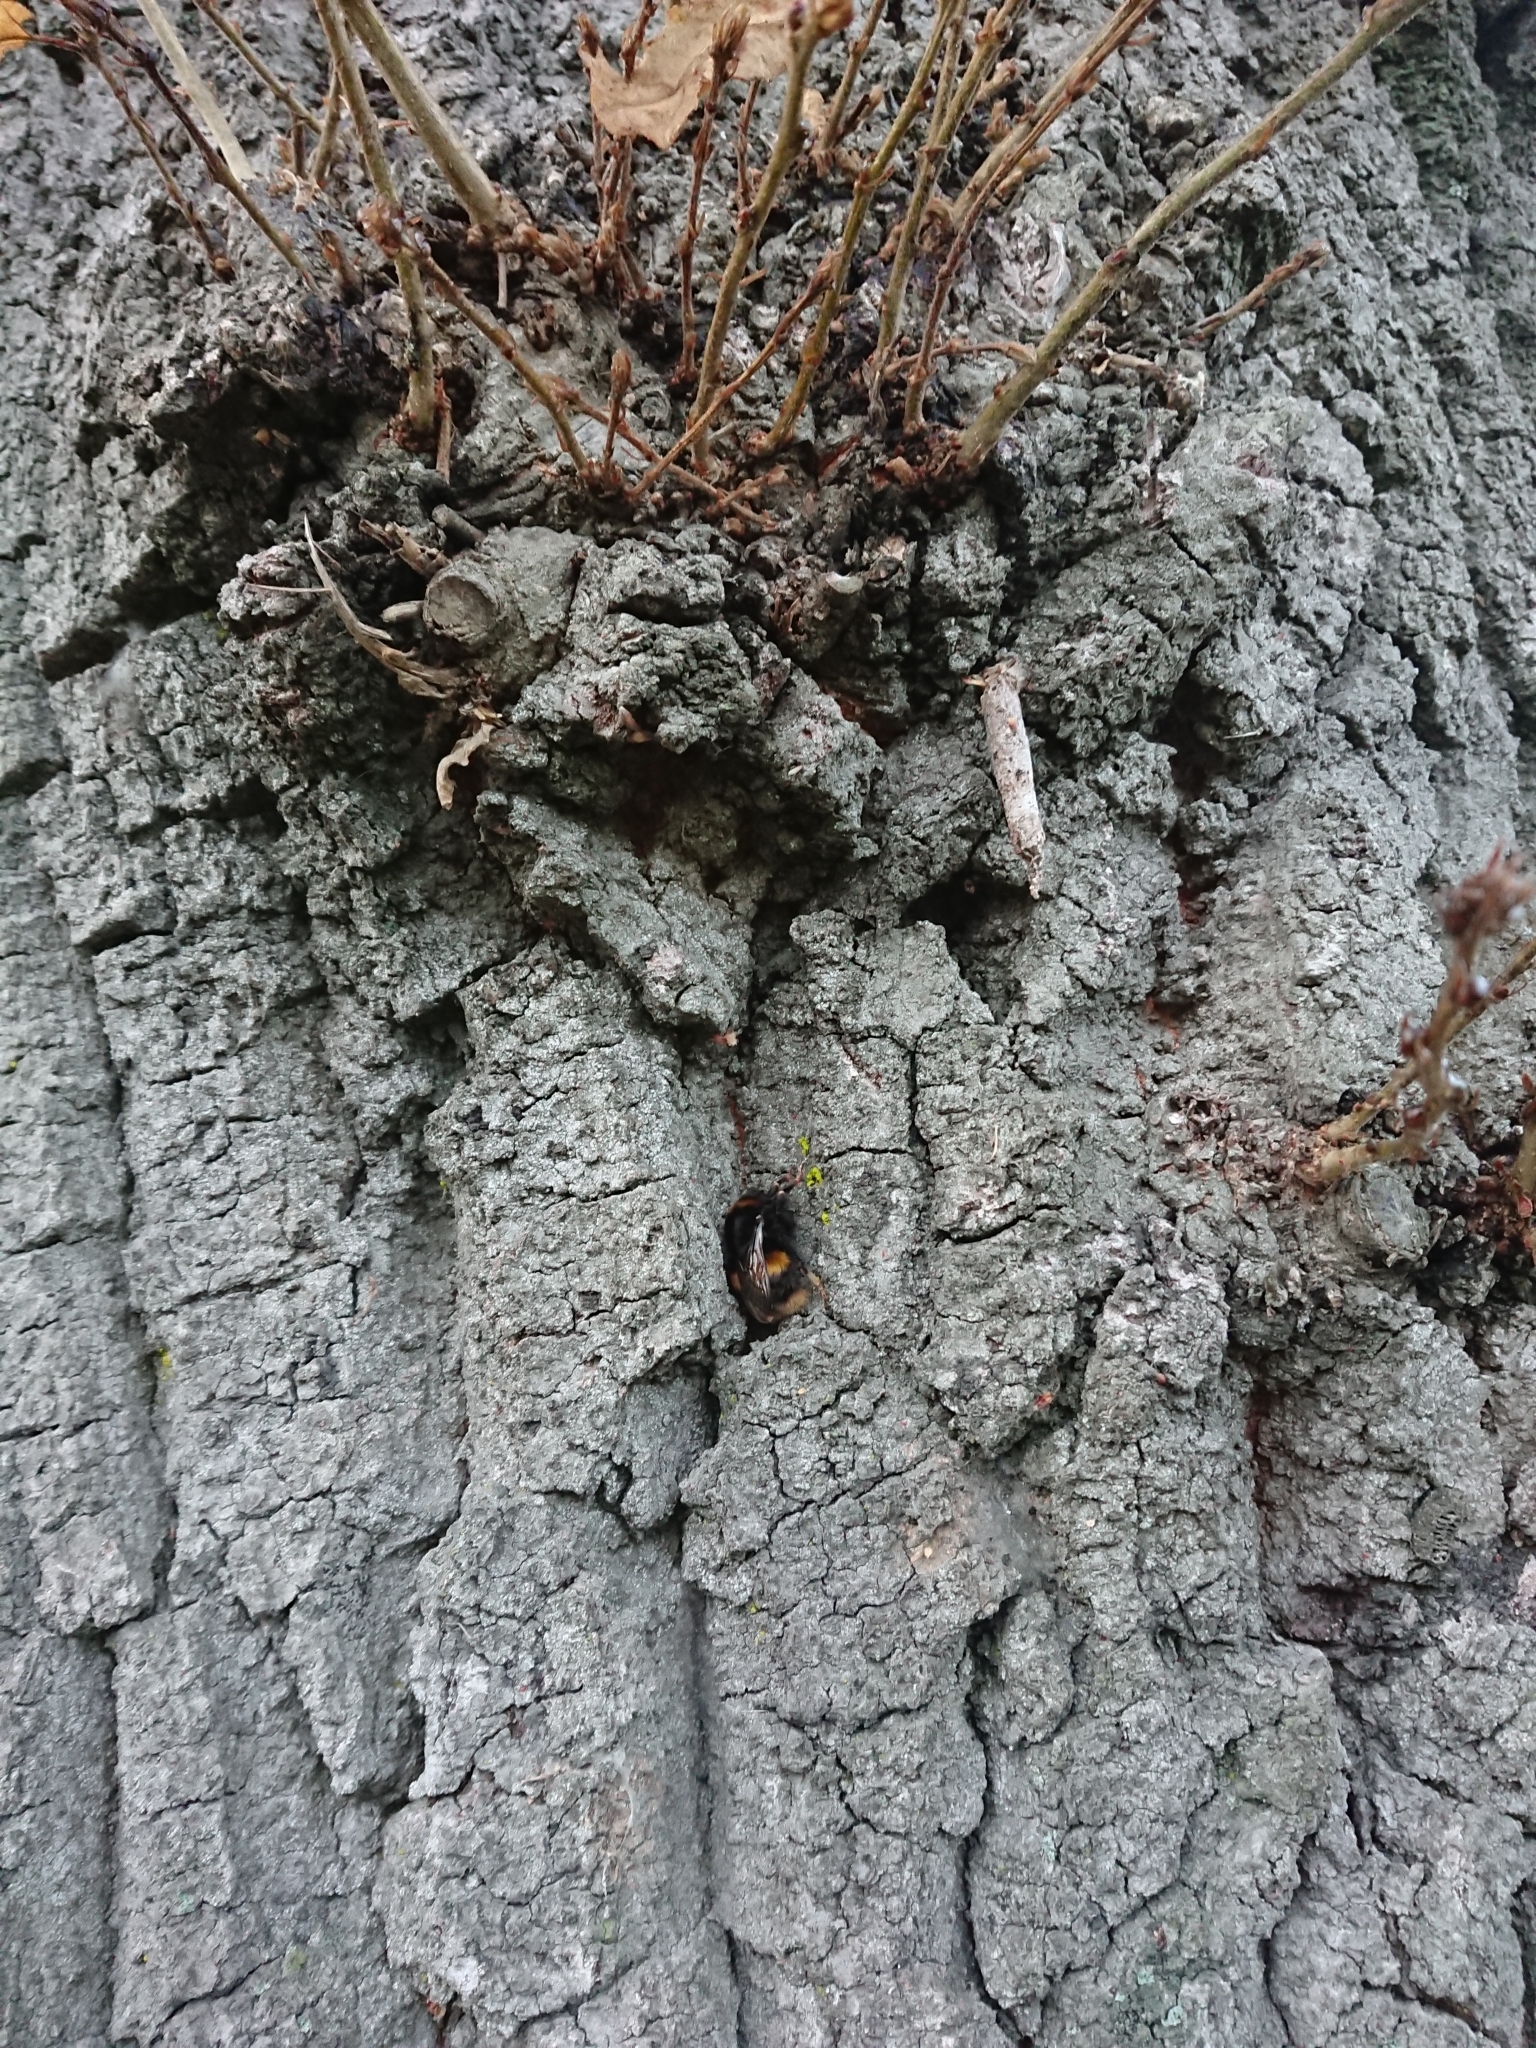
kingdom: Animalia
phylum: Arthropoda
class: Insecta
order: Hymenoptera
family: Apidae
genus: Bombus
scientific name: Bombus terrestris
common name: Buff-tailed bumblebee
